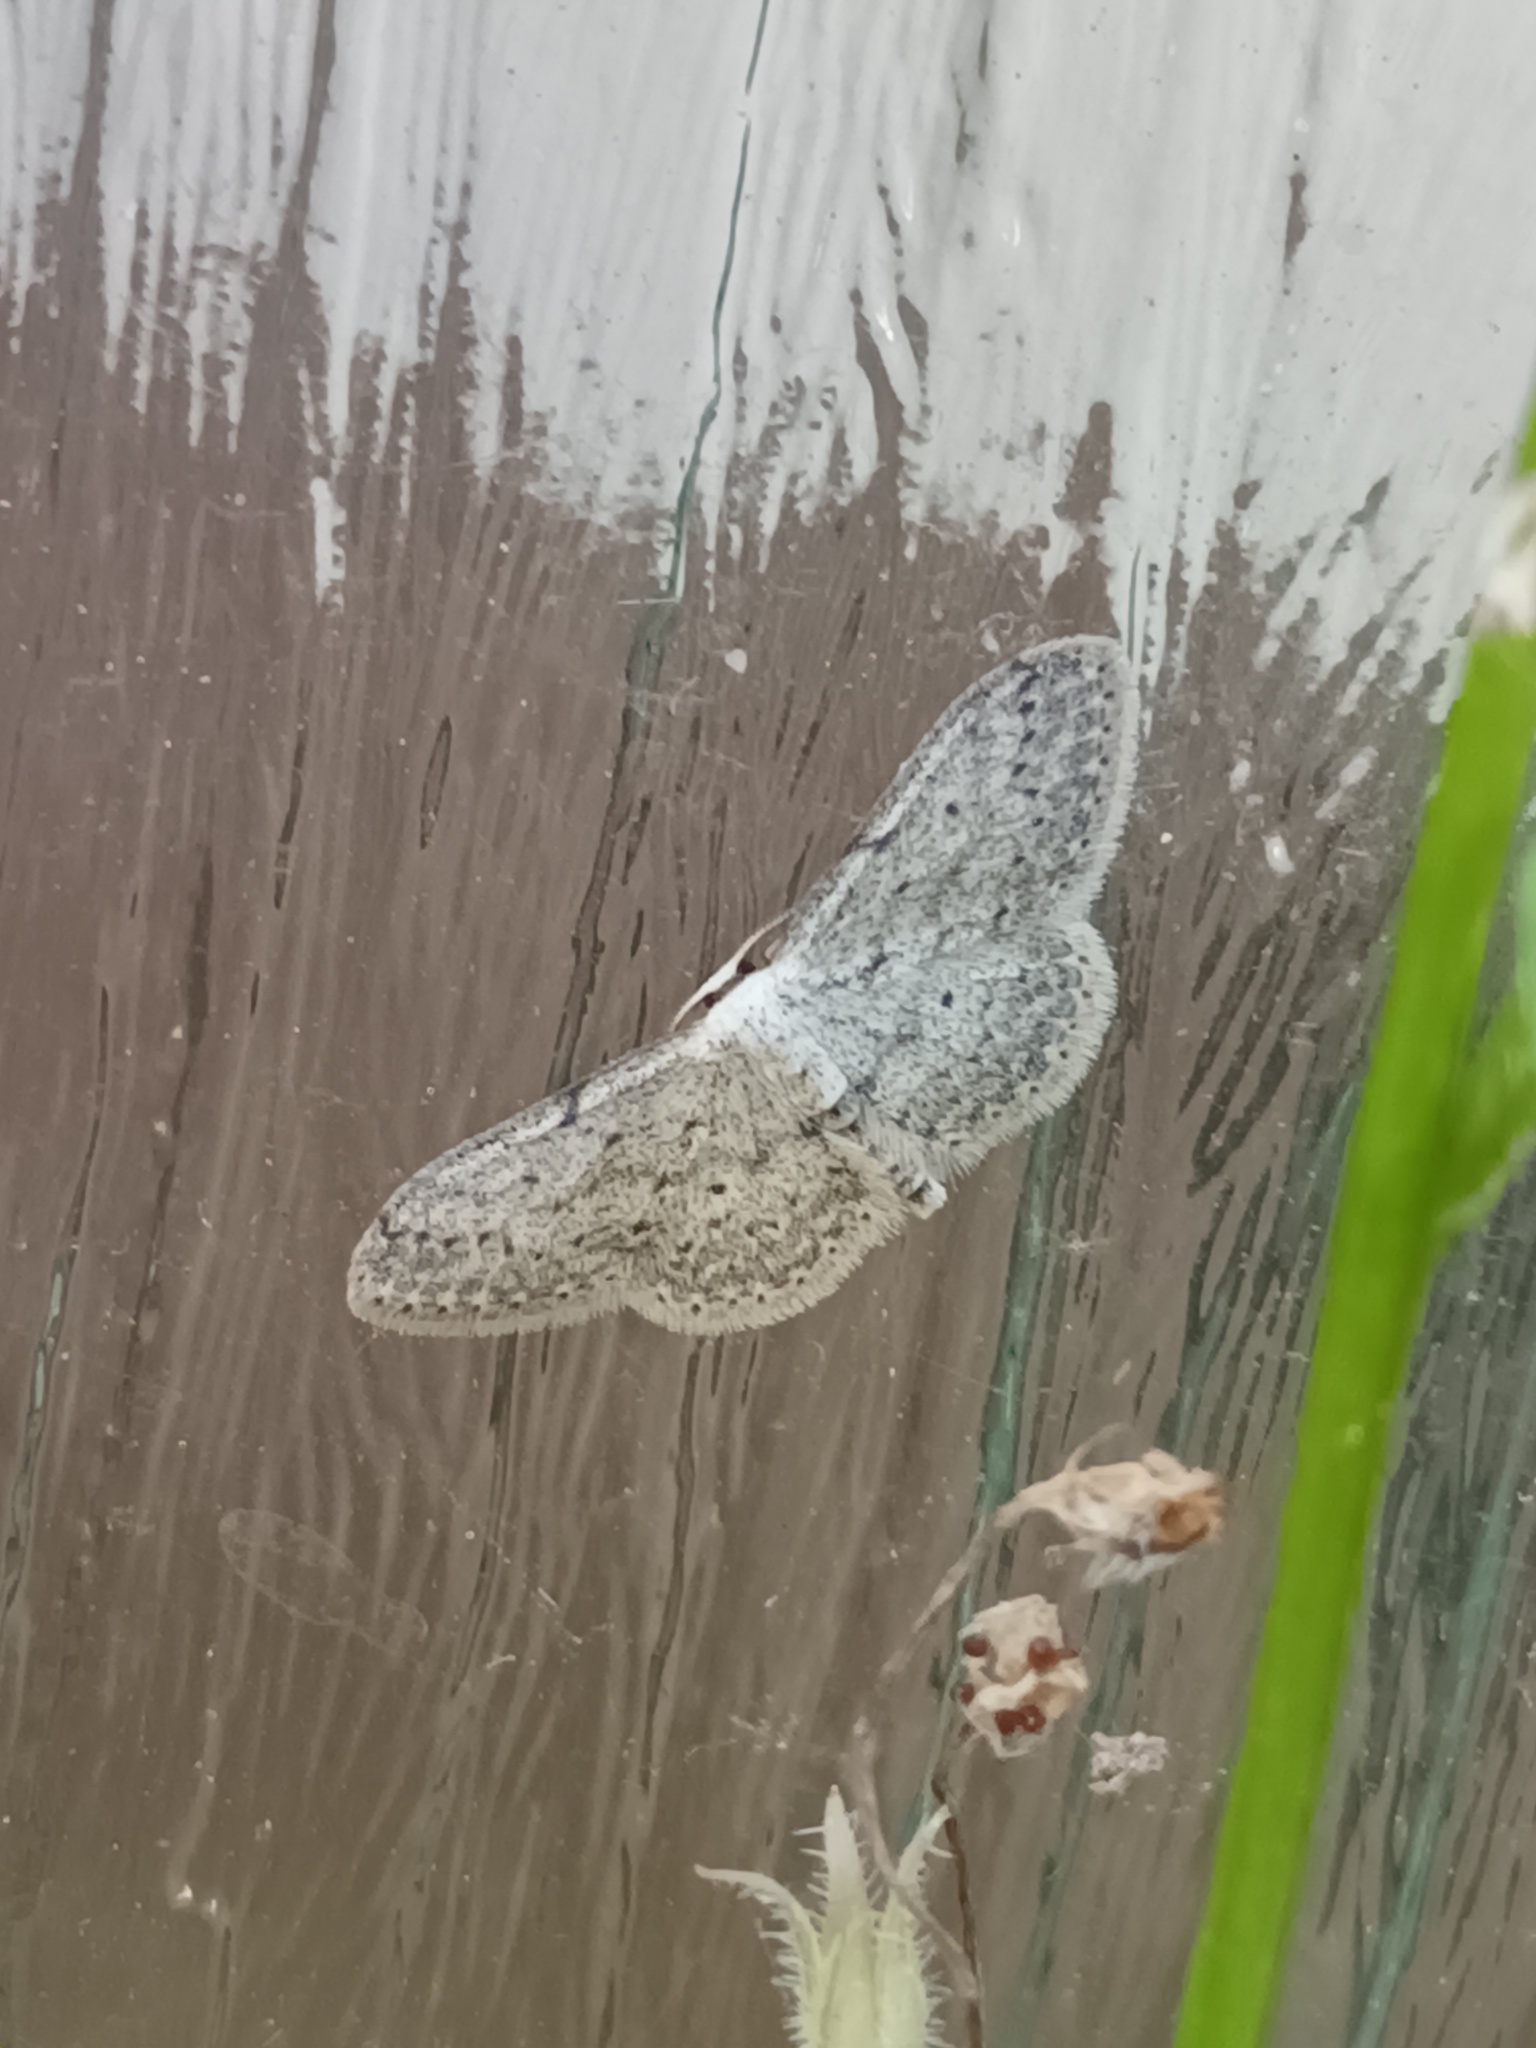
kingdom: Animalia
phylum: Arthropoda
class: Insecta
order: Lepidoptera
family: Geometridae
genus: Idaea
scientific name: Idaea seriata
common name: Small dusty wave
